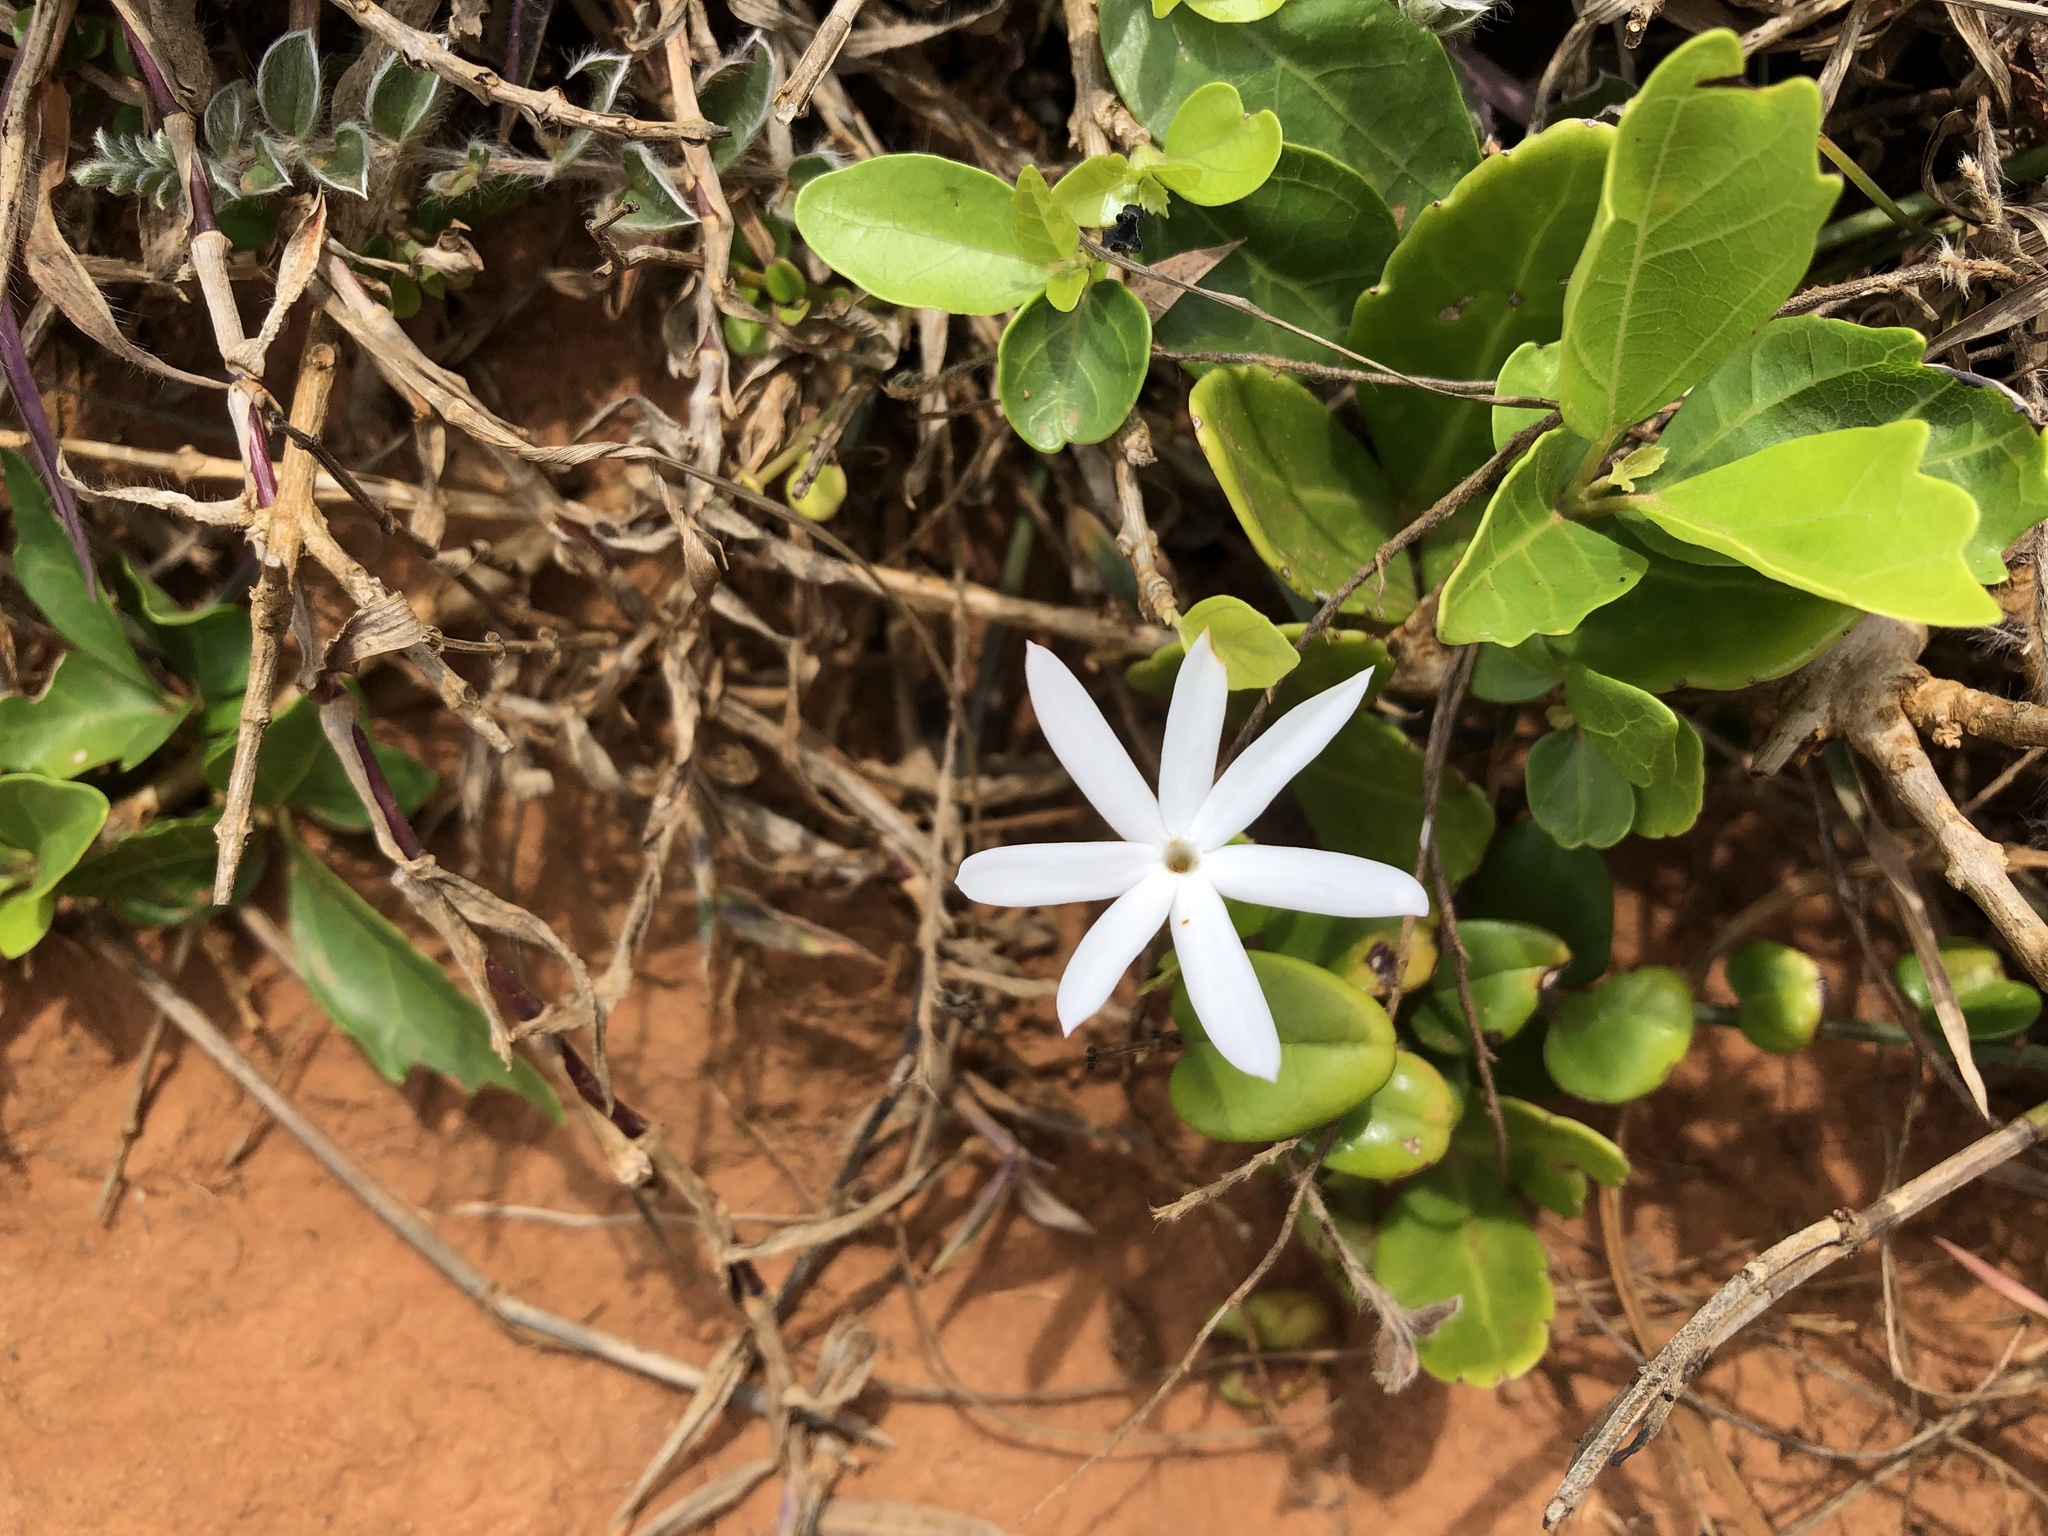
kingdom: Plantae
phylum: Tracheophyta
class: Magnoliopsida
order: Lamiales
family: Oleaceae
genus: Jasminum
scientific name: Jasminum nervosum
